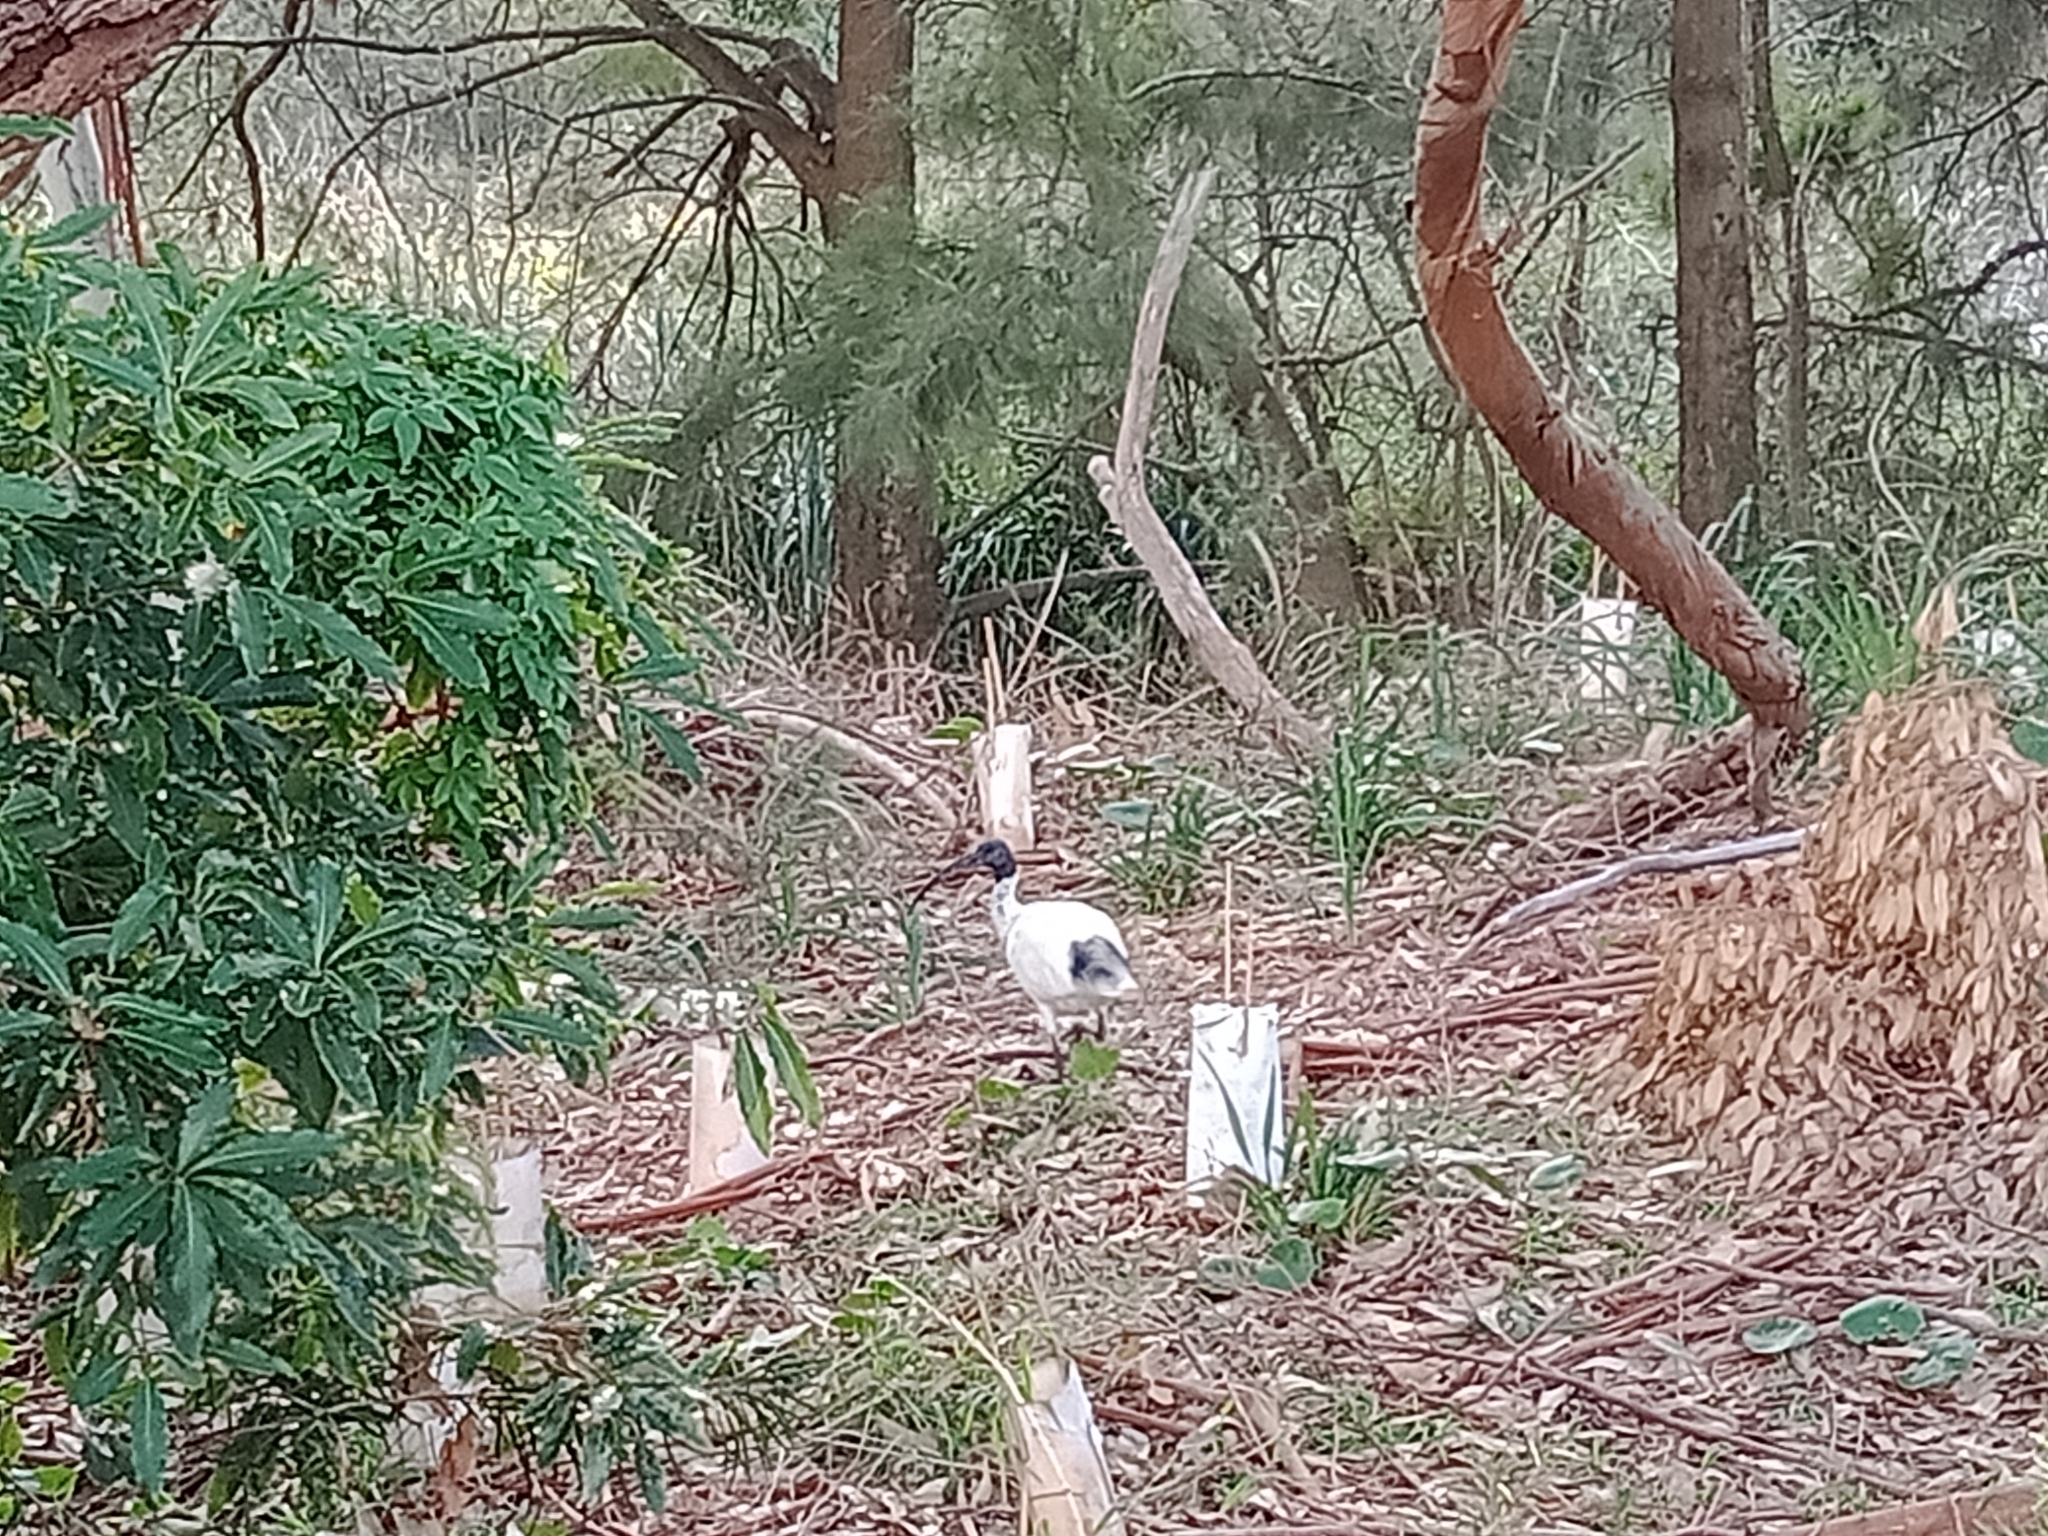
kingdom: Animalia
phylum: Chordata
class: Aves
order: Pelecaniformes
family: Threskiornithidae
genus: Threskiornis
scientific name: Threskiornis molucca
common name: Australian white ibis
